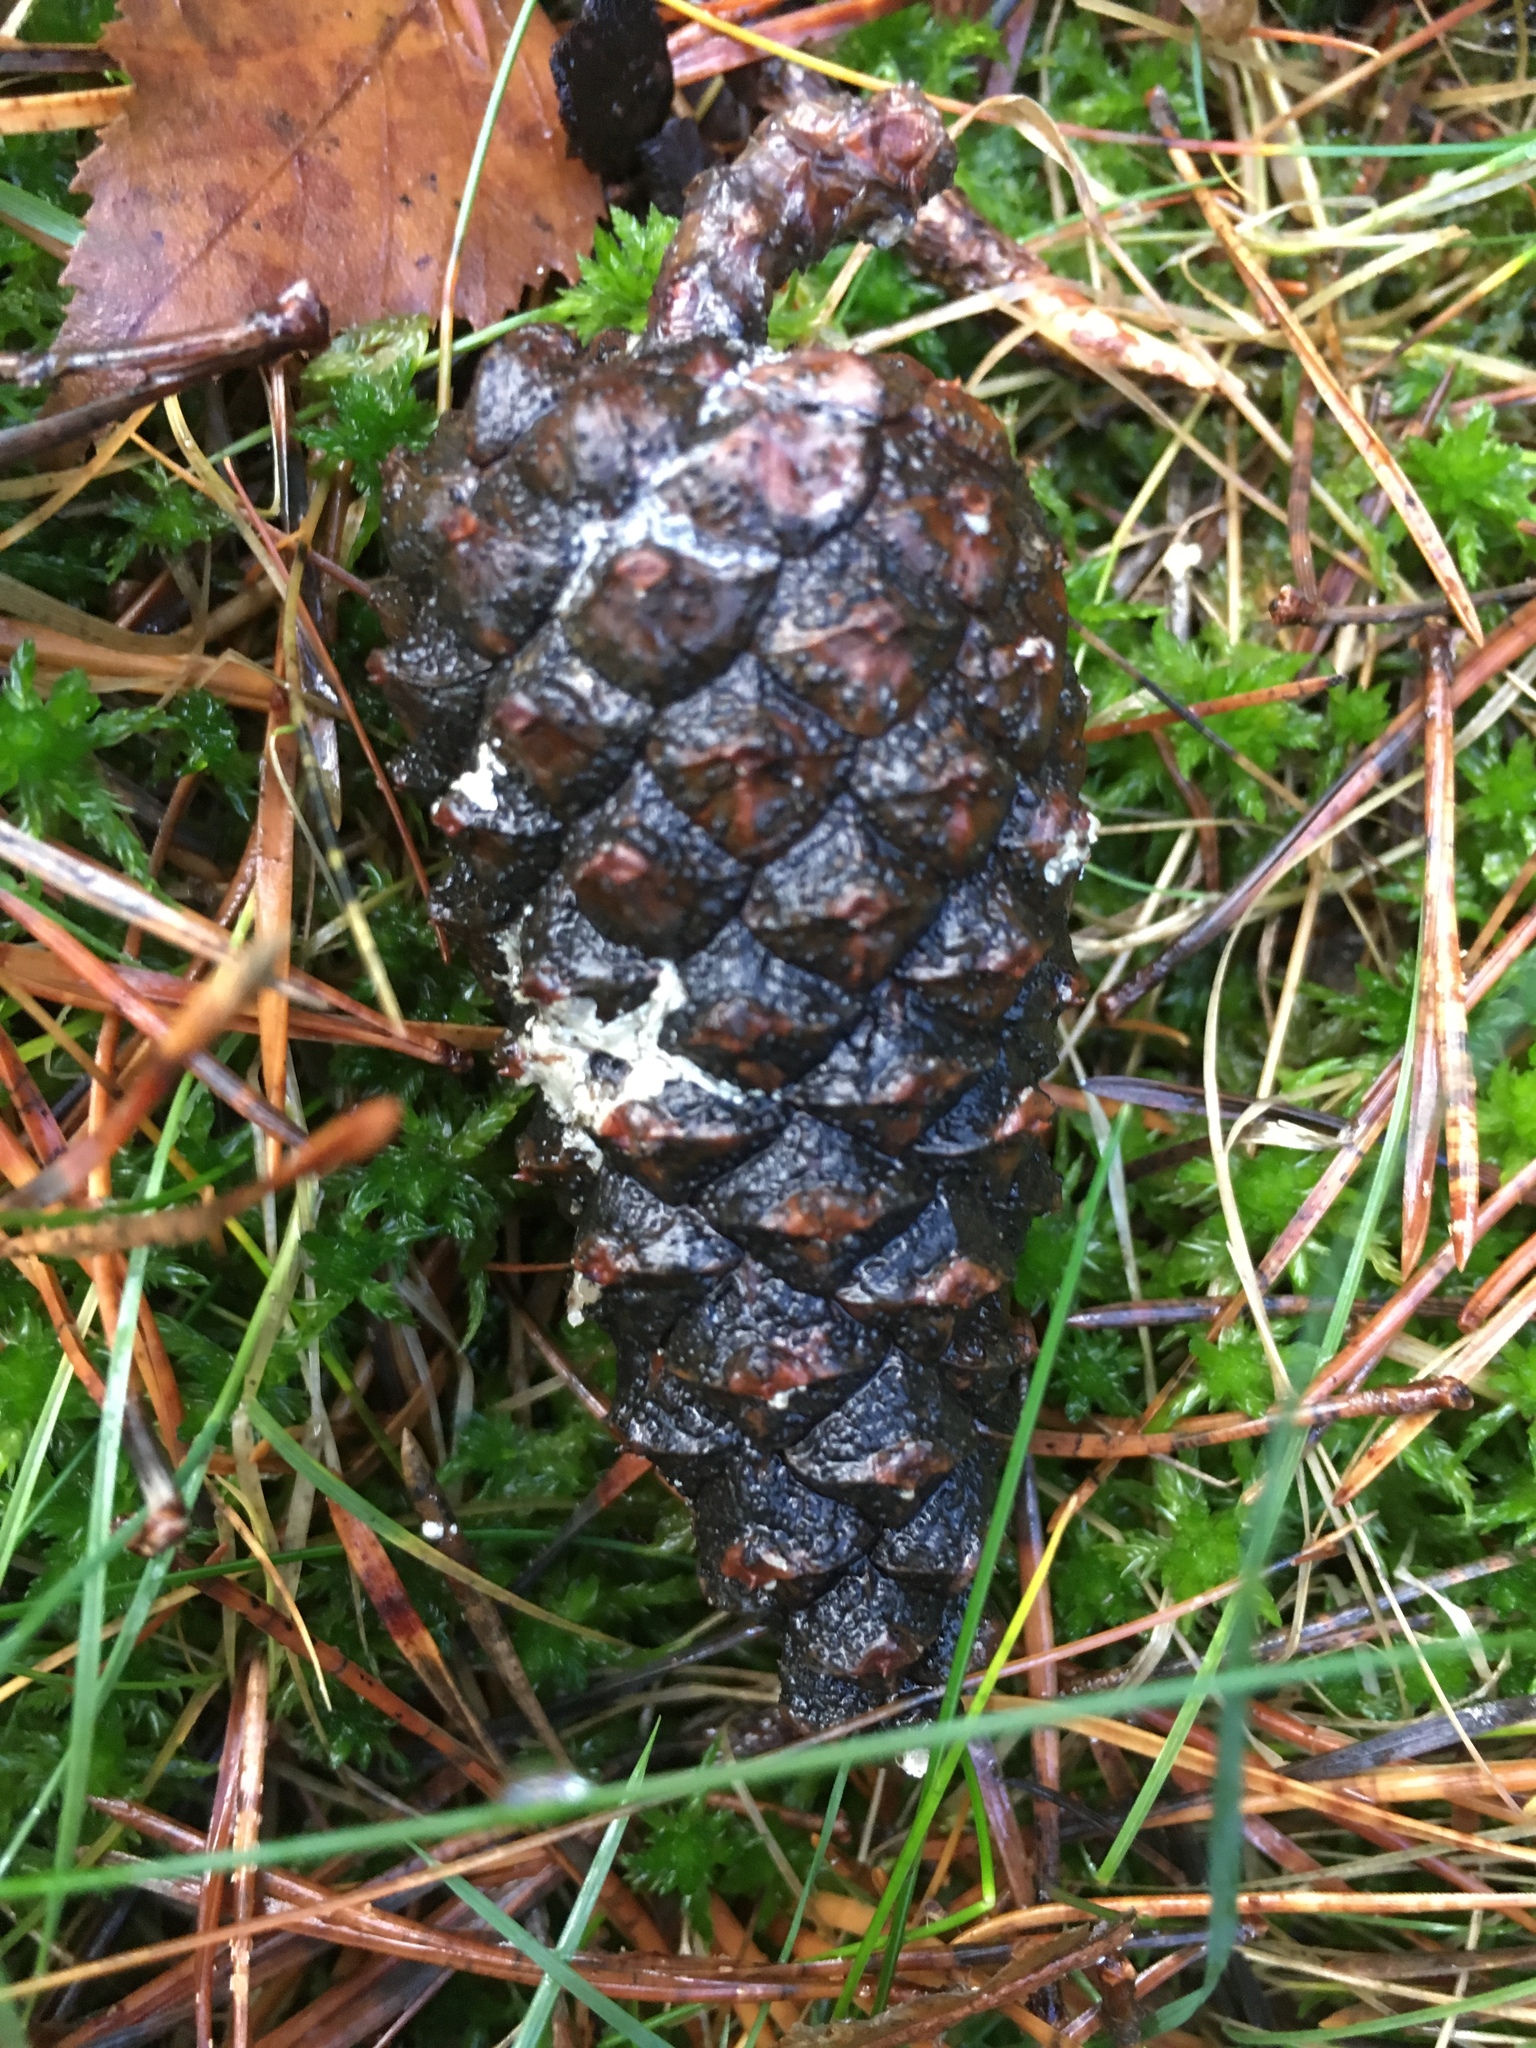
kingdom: Plantae
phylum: Tracheophyta
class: Pinopsida
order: Pinales
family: Pinaceae
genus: Pinus
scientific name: Pinus sylvestris
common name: Scots pine
